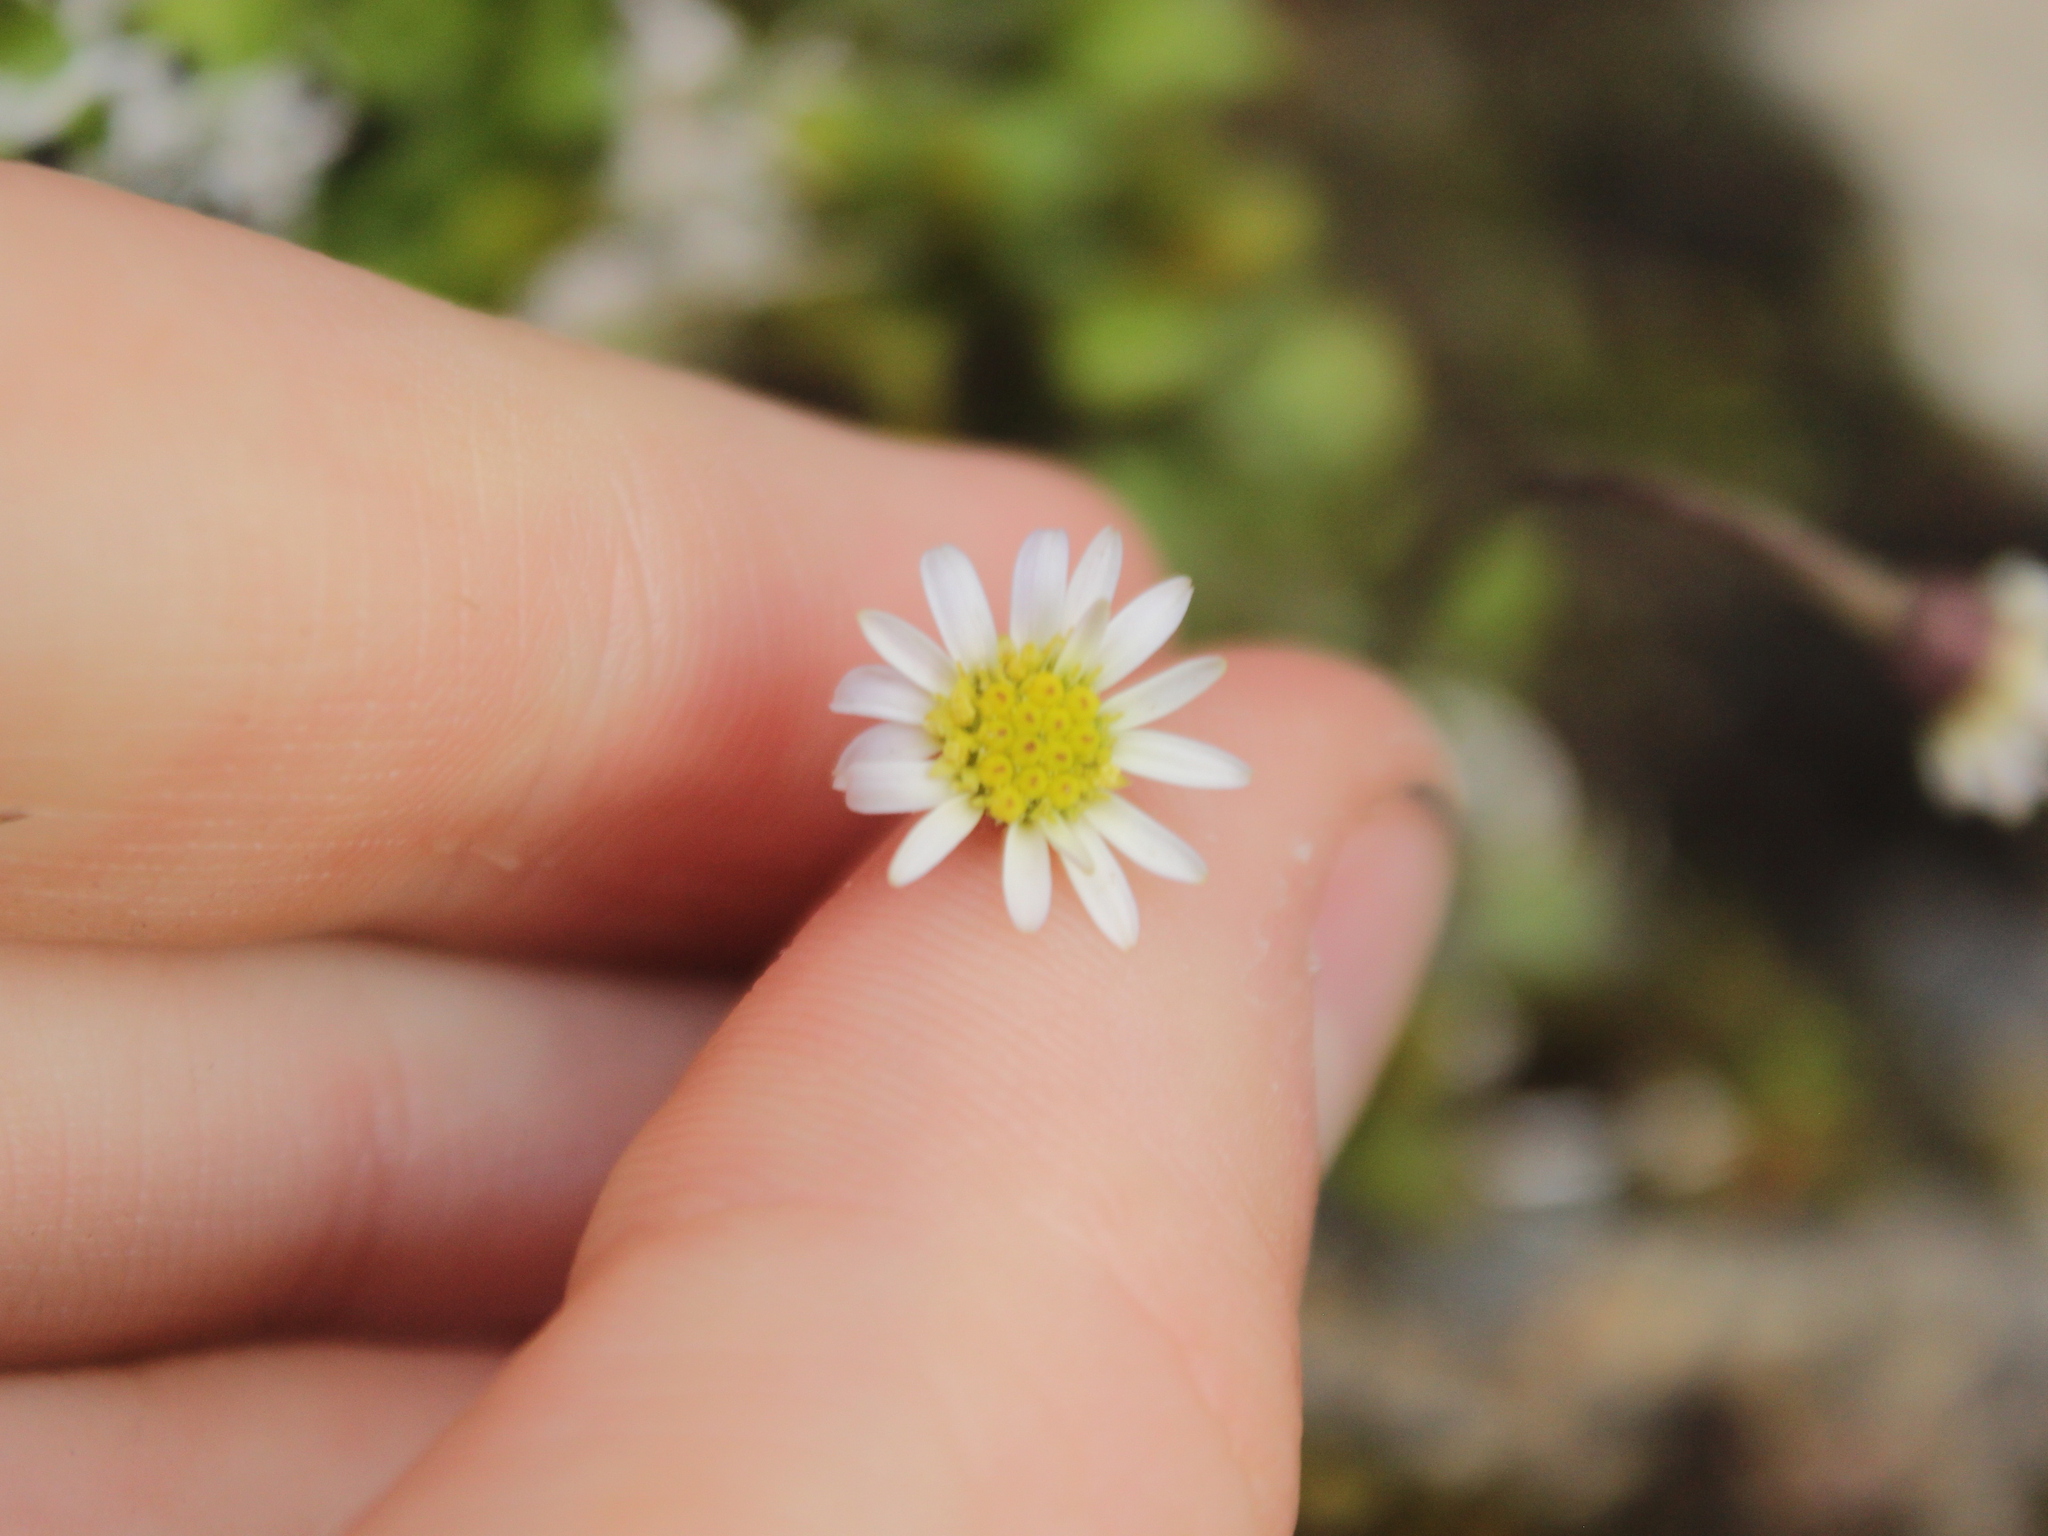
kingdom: Plantae
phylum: Tracheophyta
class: Magnoliopsida
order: Asterales
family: Asteraceae
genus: Brachyscome
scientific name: Brachyscome sinclairii
